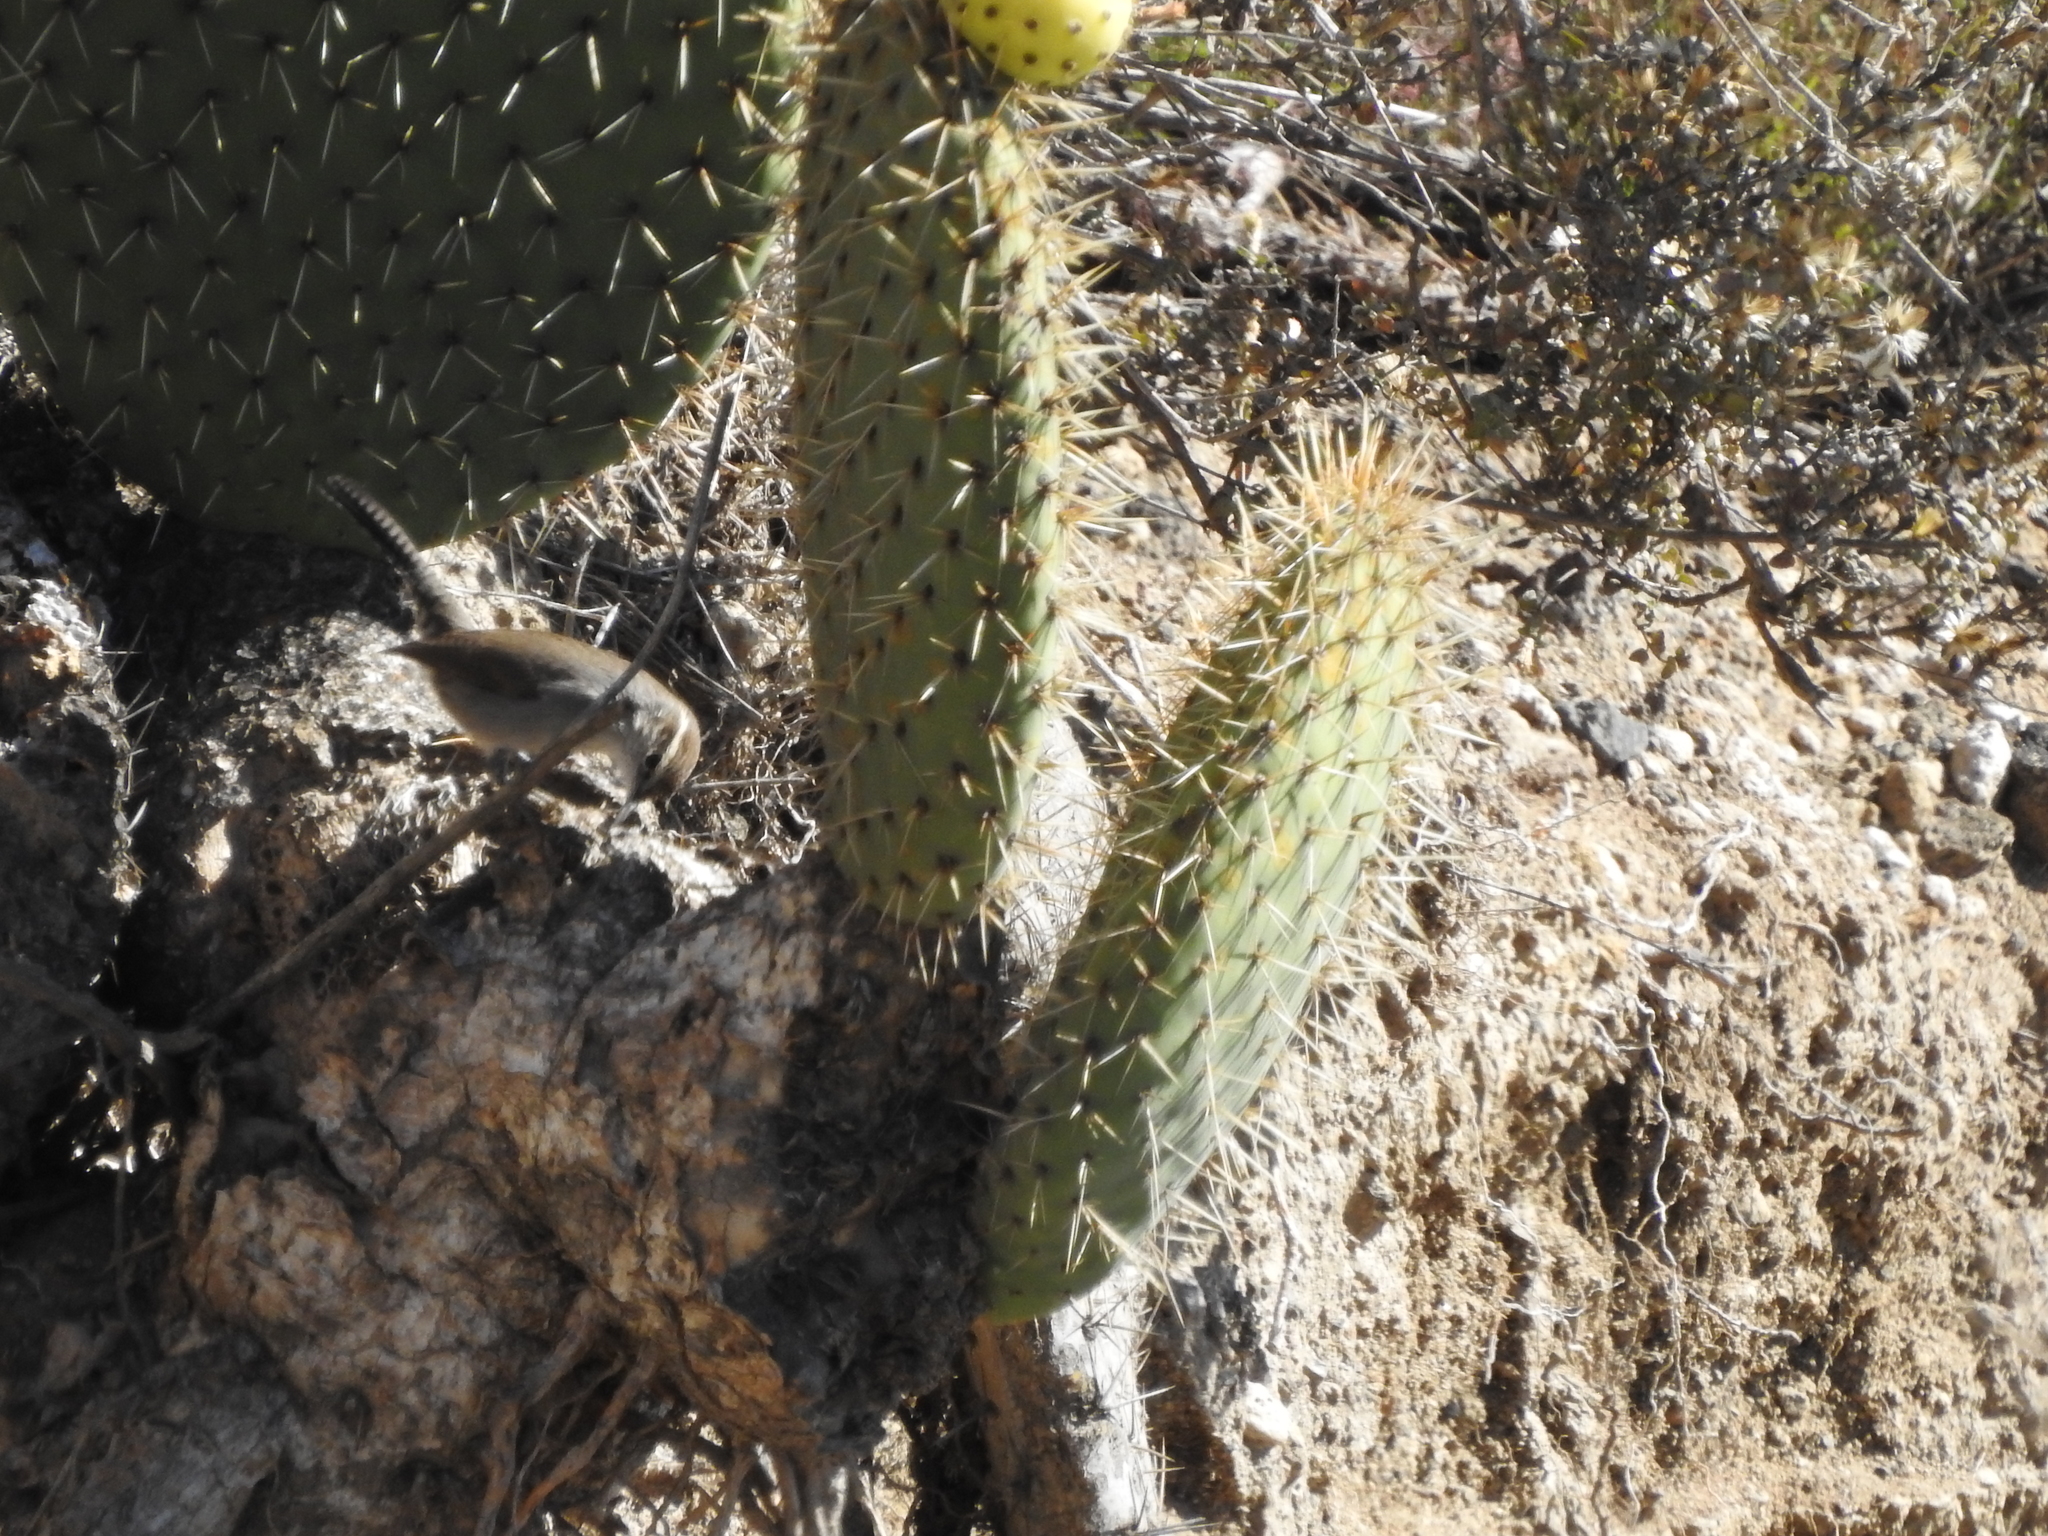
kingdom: Animalia
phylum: Chordata
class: Aves
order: Passeriformes
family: Troglodytidae
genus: Thryomanes
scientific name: Thryomanes bewickii
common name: Bewick's wren
